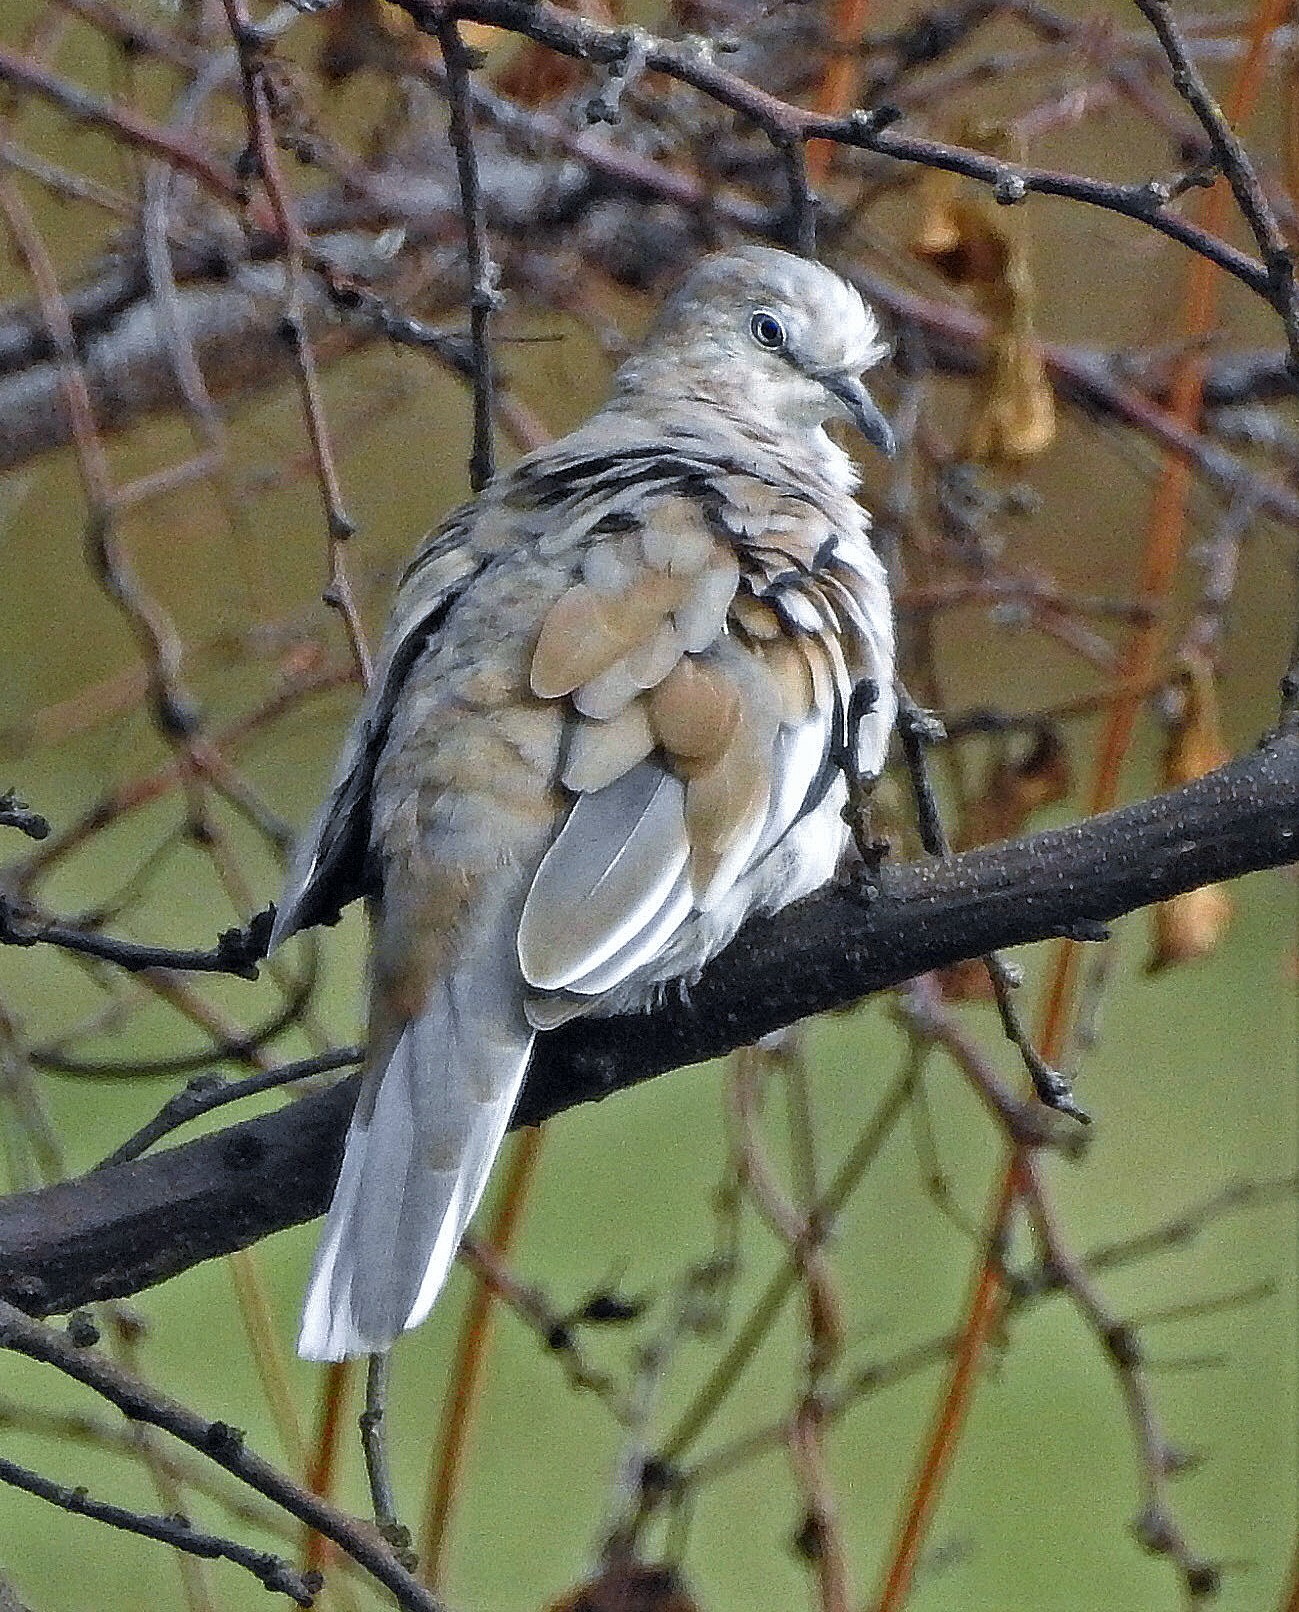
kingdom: Animalia
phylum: Chordata
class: Aves
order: Columbiformes
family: Columbidae
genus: Columbina
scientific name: Columbina picui
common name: Picui ground dove
